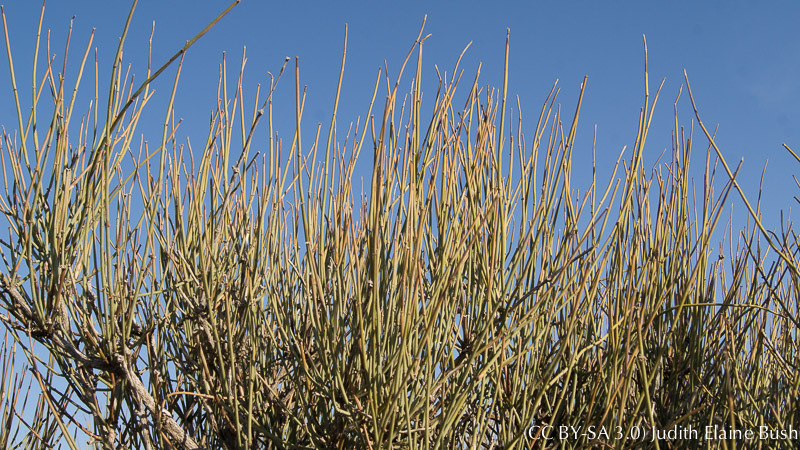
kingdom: Plantae
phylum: Tracheophyta
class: Gnetopsida
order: Ephedrales
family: Ephedraceae
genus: Ephedra
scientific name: Ephedra californica
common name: California ephedra
